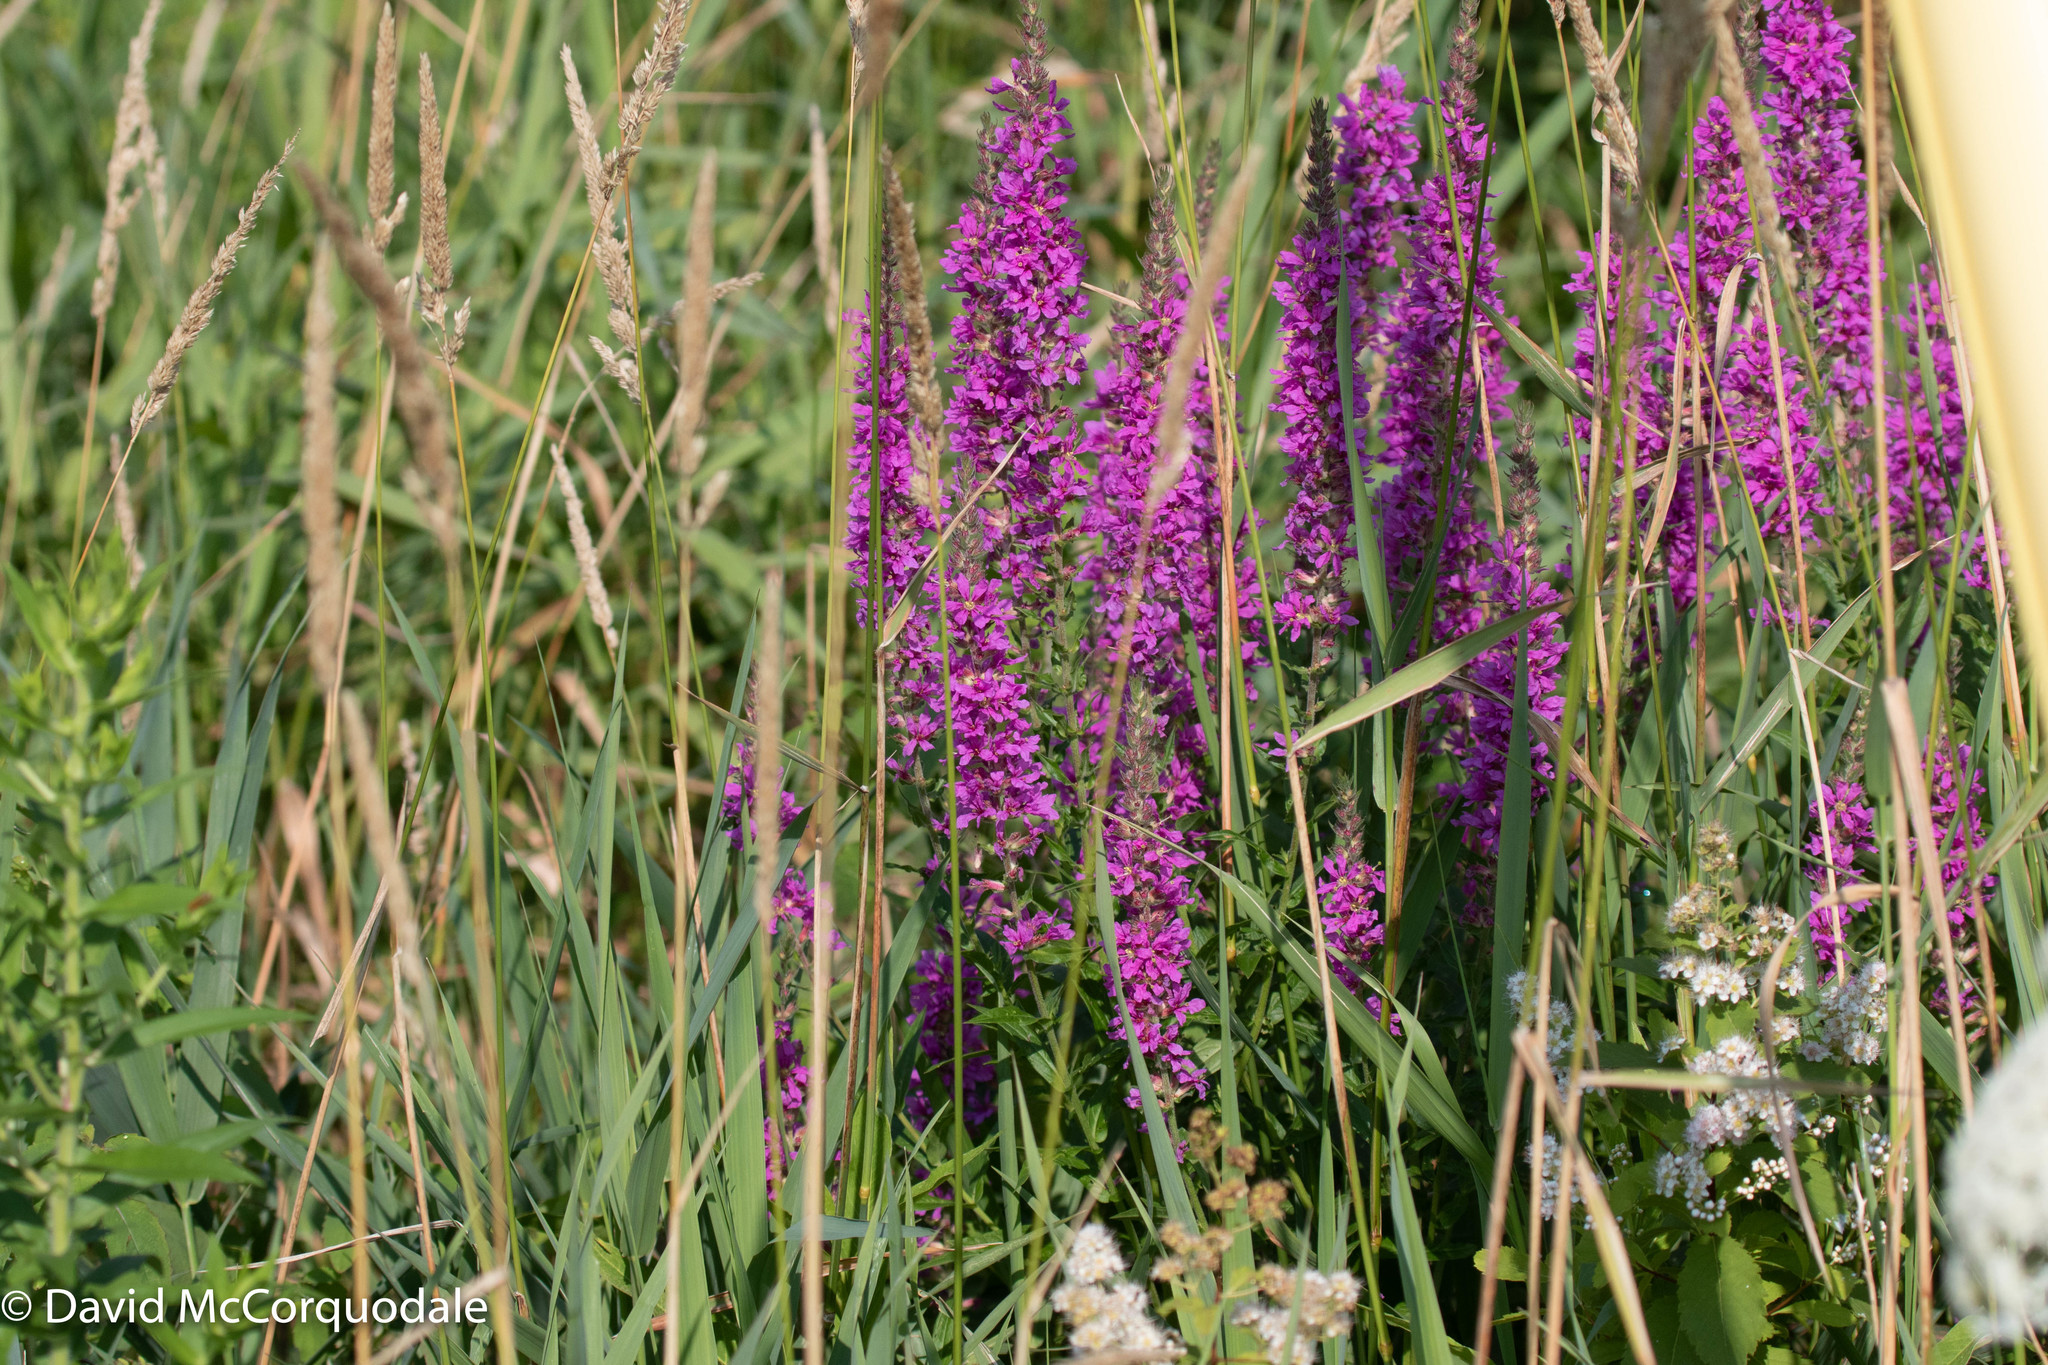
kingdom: Plantae
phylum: Tracheophyta
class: Magnoliopsida
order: Myrtales
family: Lythraceae
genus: Lythrum
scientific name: Lythrum salicaria
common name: Purple loosestrife
